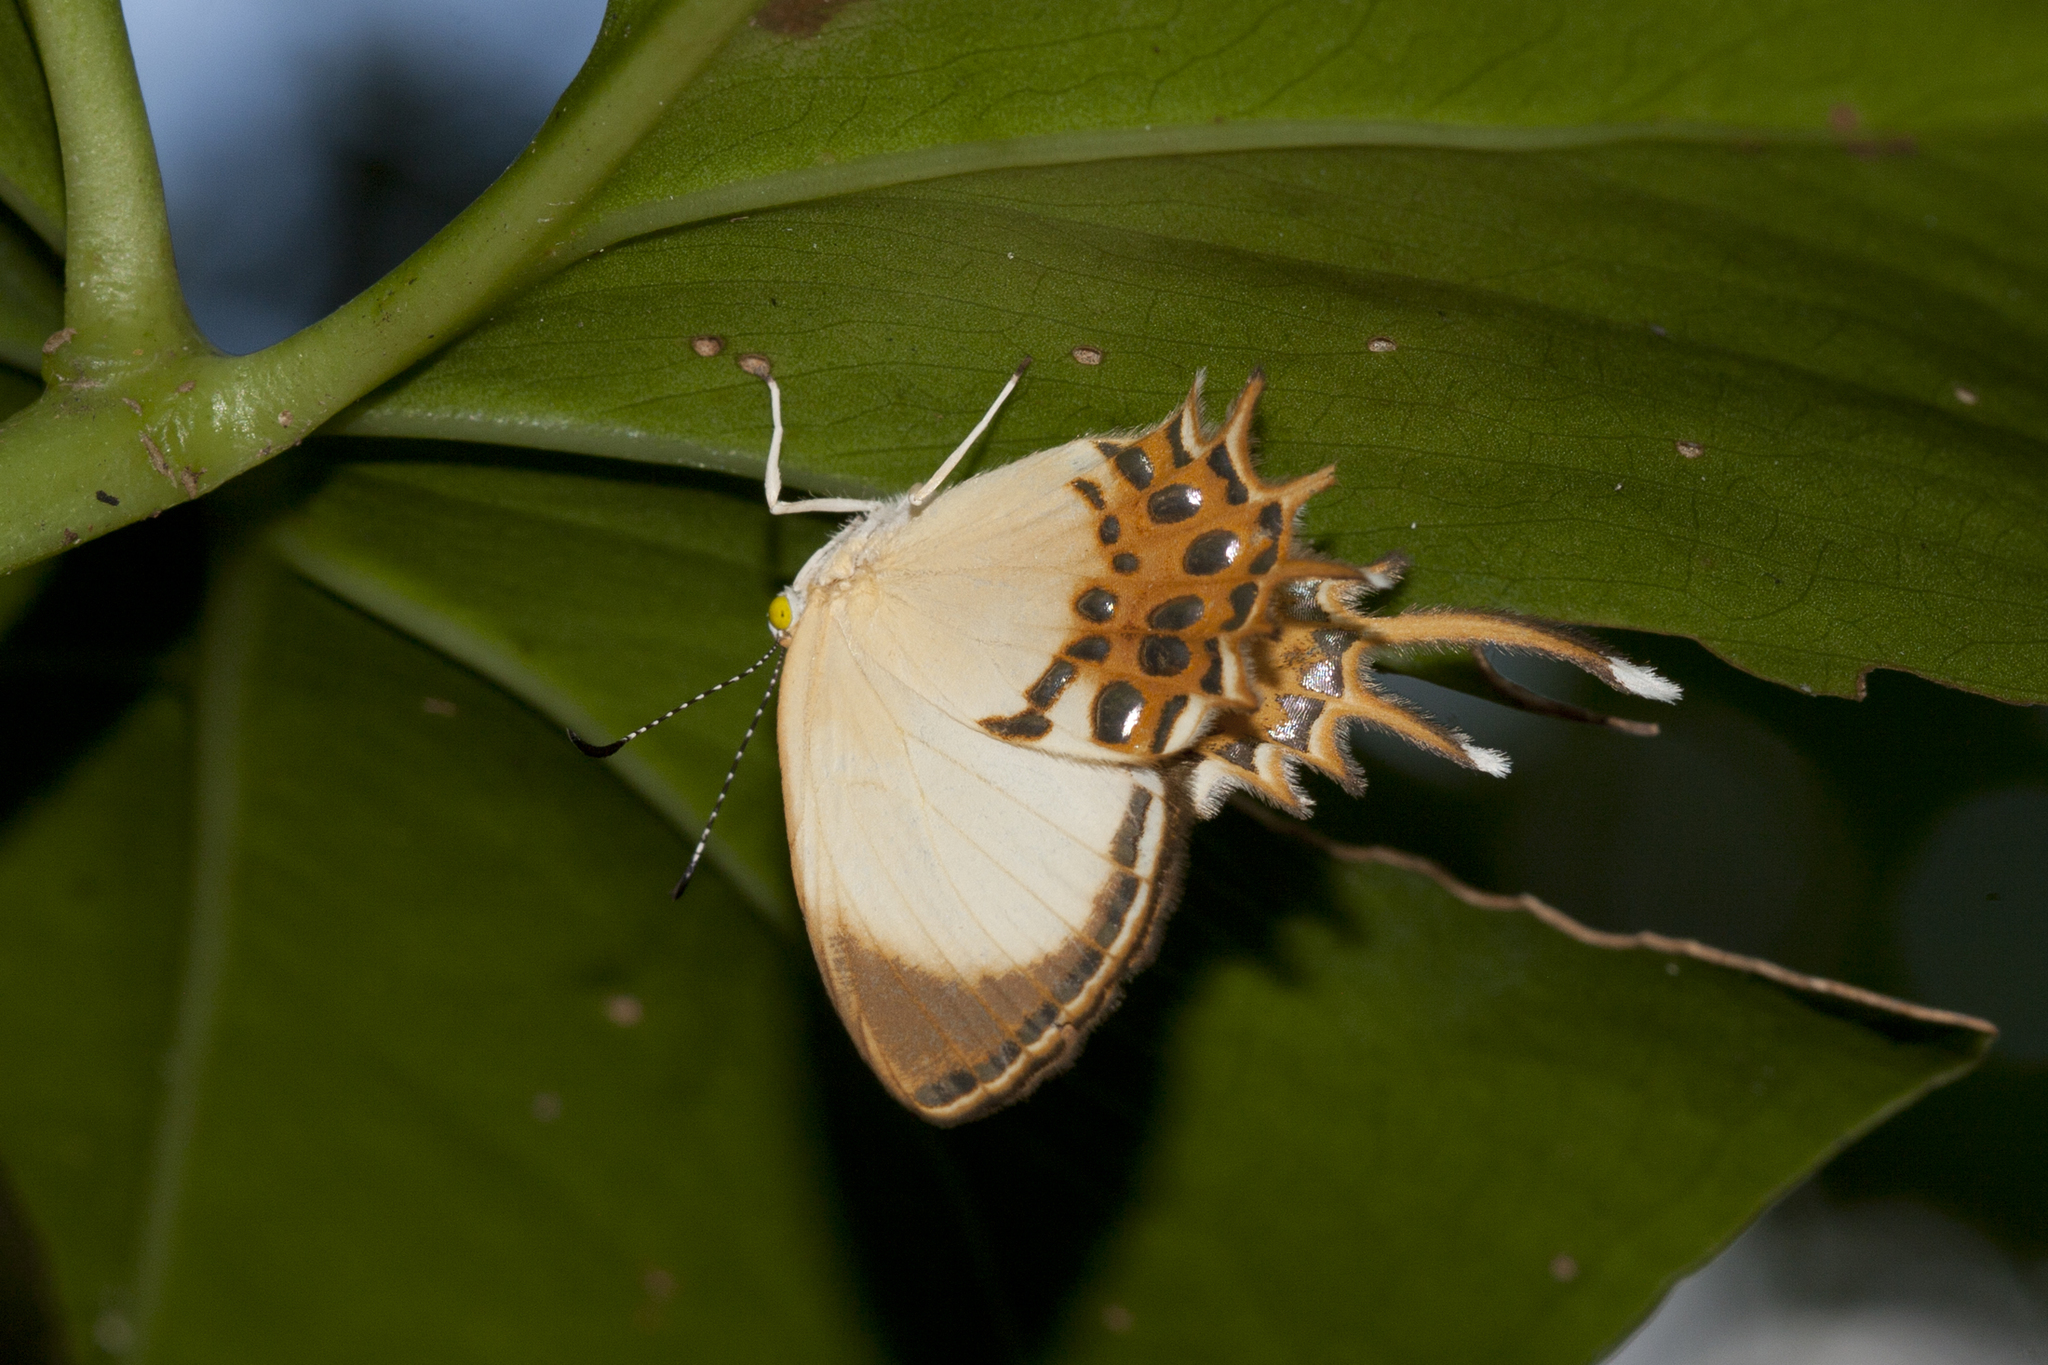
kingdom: Animalia
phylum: Arthropoda
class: Insecta
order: Lepidoptera
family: Riodinidae
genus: Helicopis
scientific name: Helicopis cupido
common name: Spangled cupid
